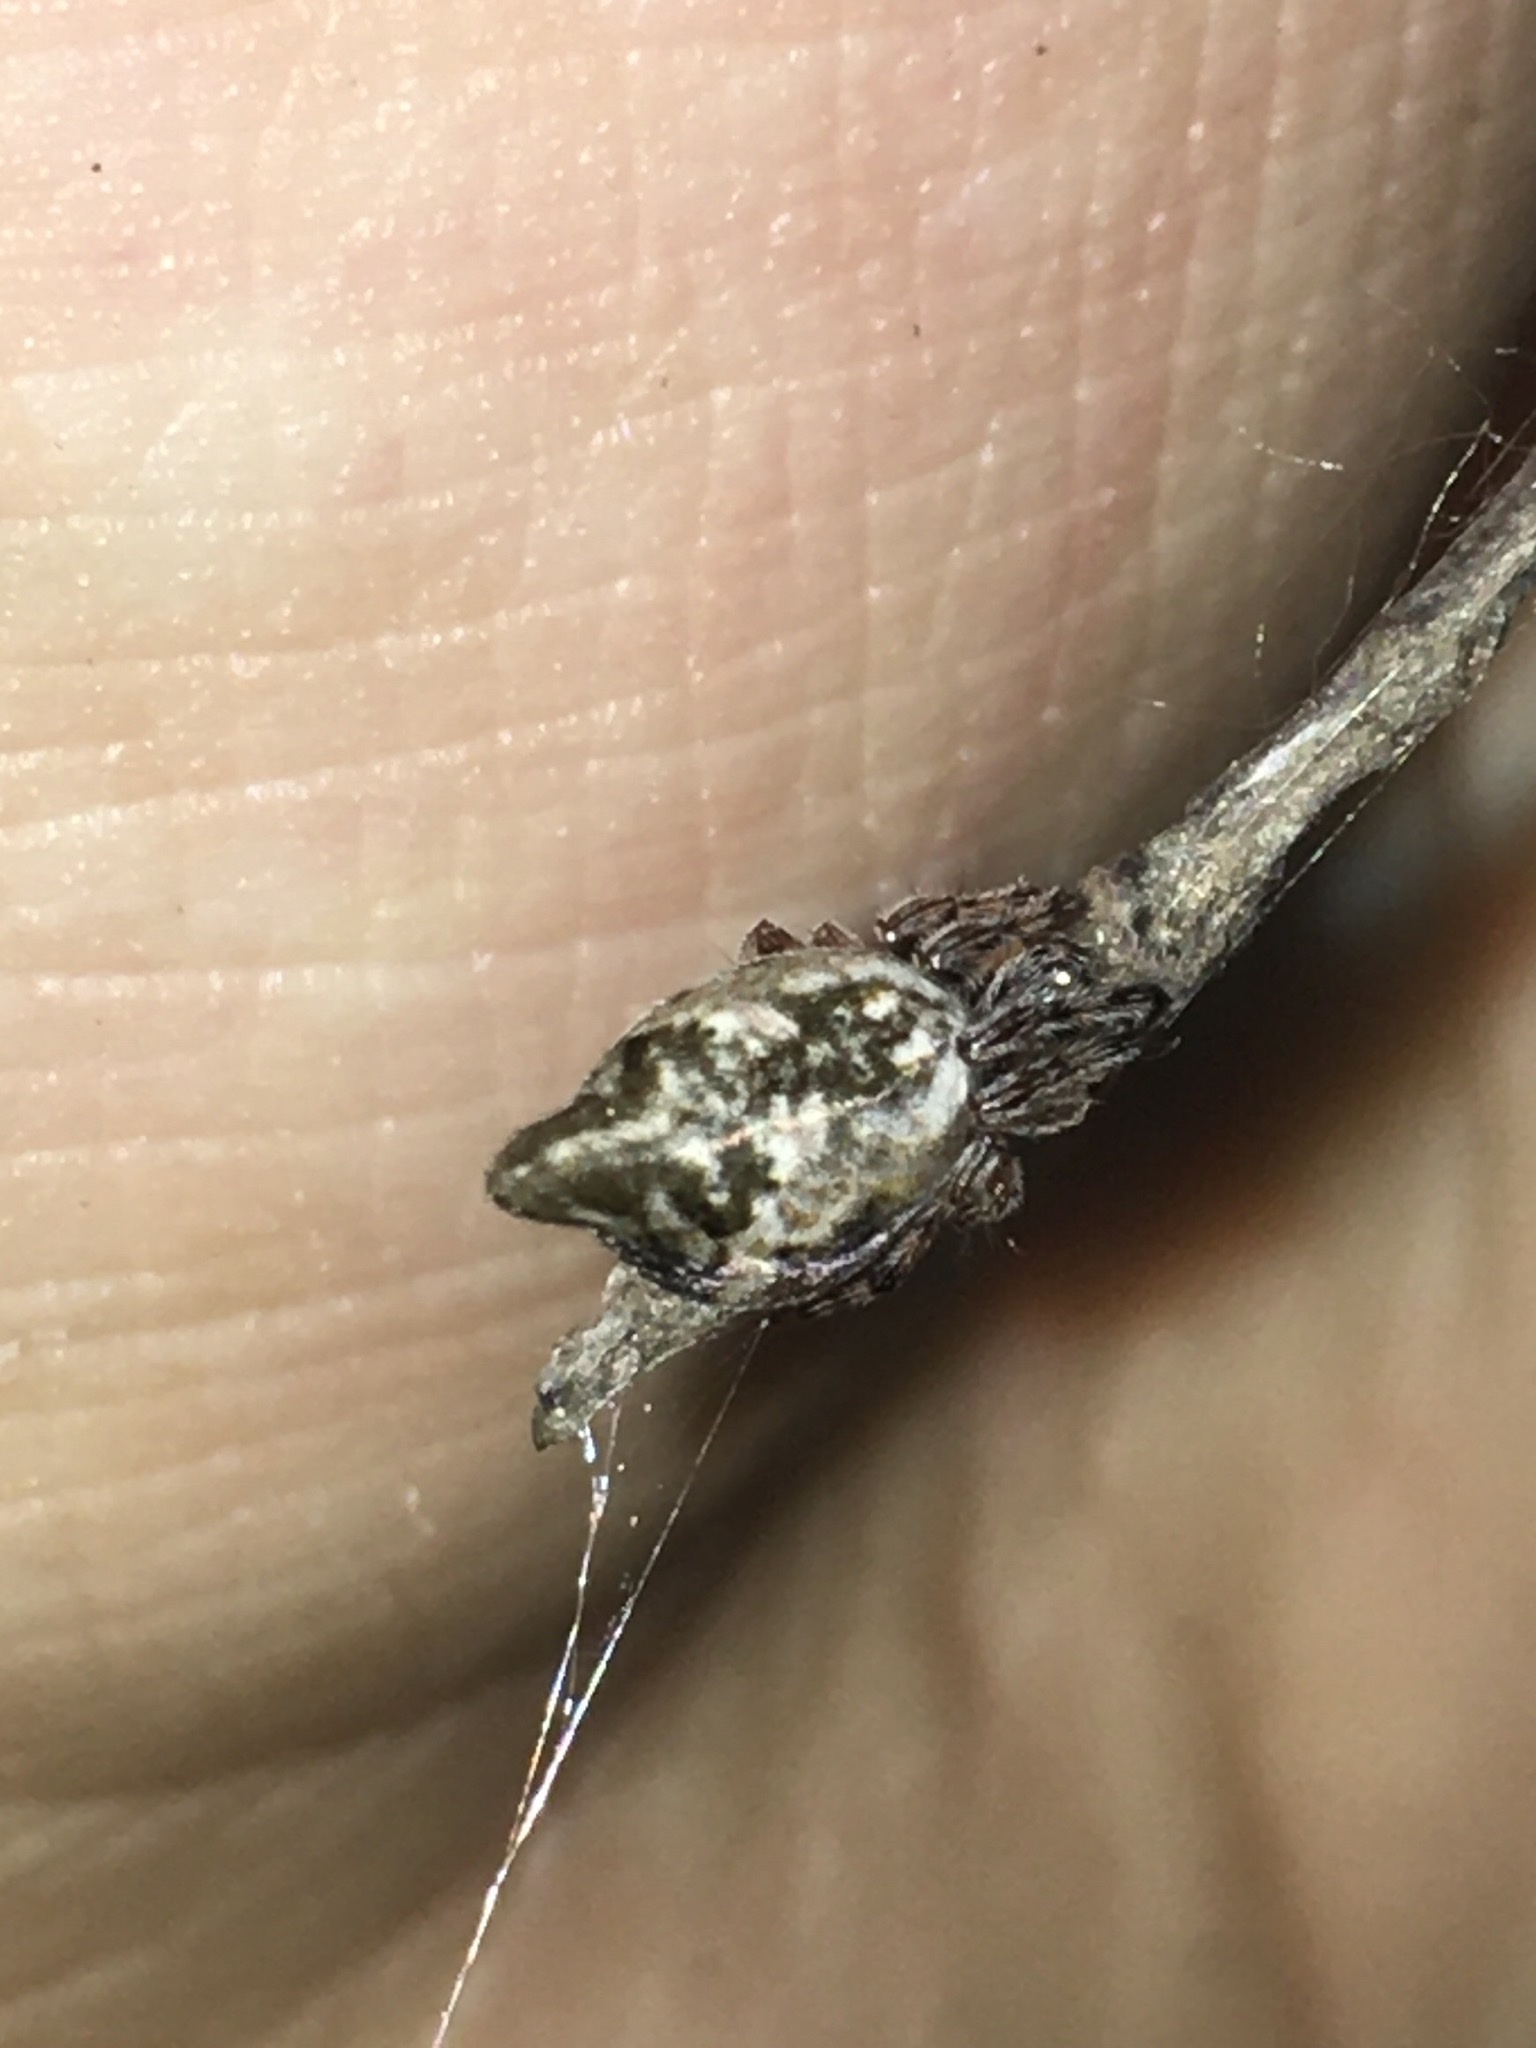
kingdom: Animalia
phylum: Arthropoda
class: Arachnida
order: Araneae
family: Araneidae
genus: Cyclosa
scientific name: Cyclosa conica
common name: Conical trashline orbweaver
